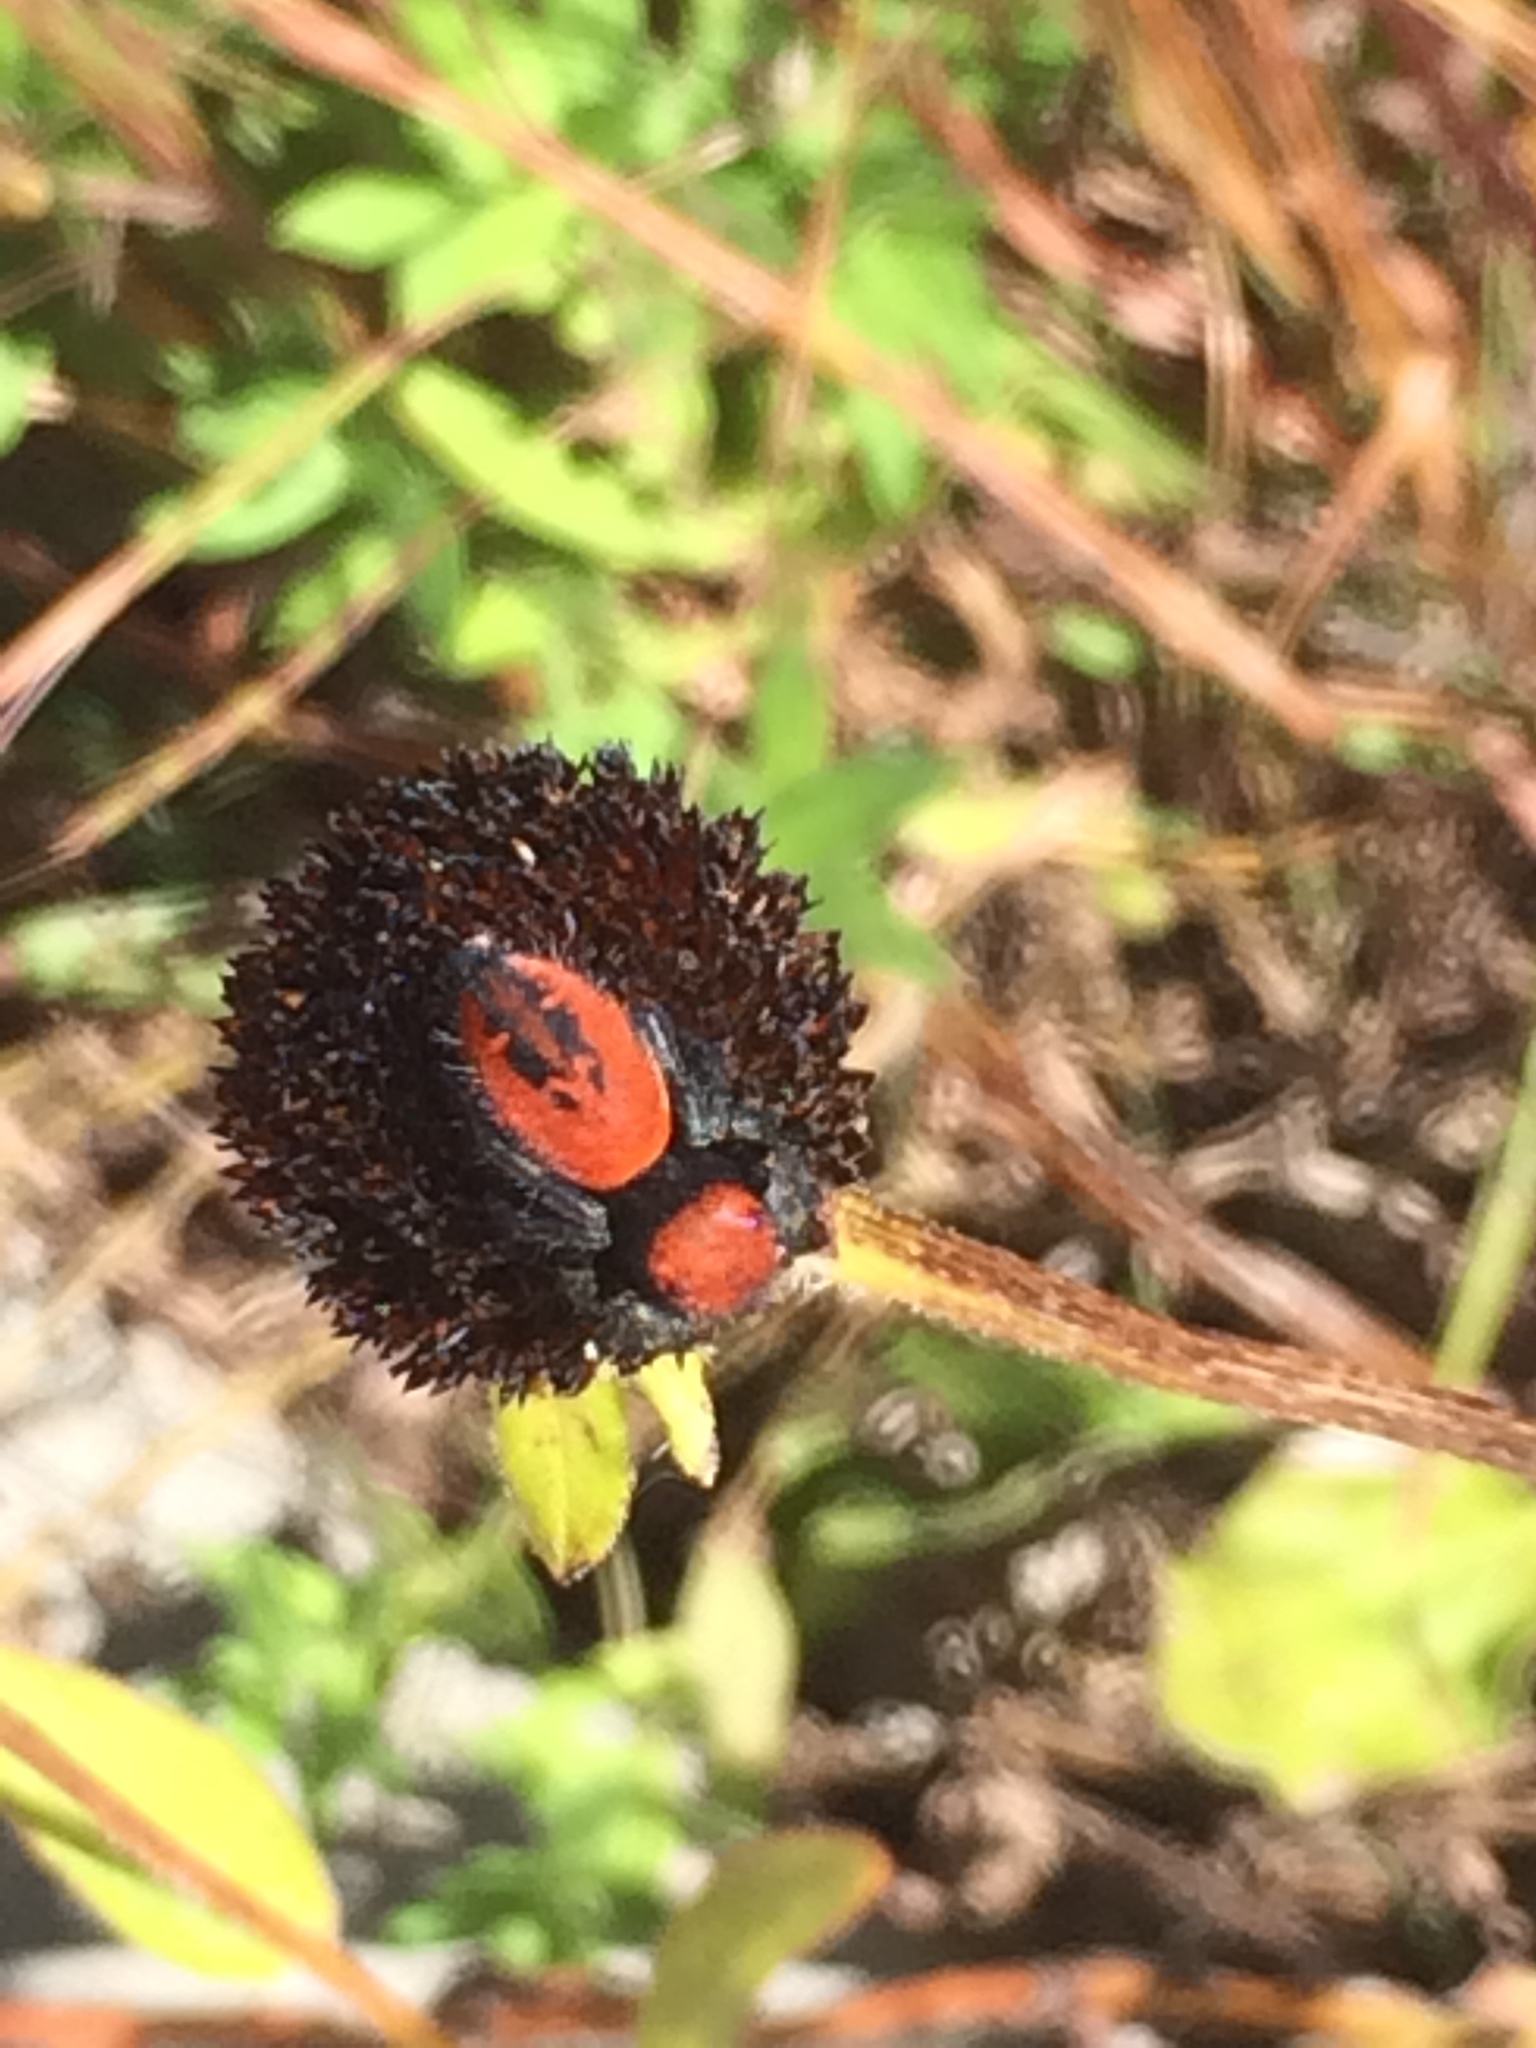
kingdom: Animalia
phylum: Arthropoda
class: Arachnida
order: Araneae
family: Salticidae
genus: Phidippus
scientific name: Phidippus apacheanus
